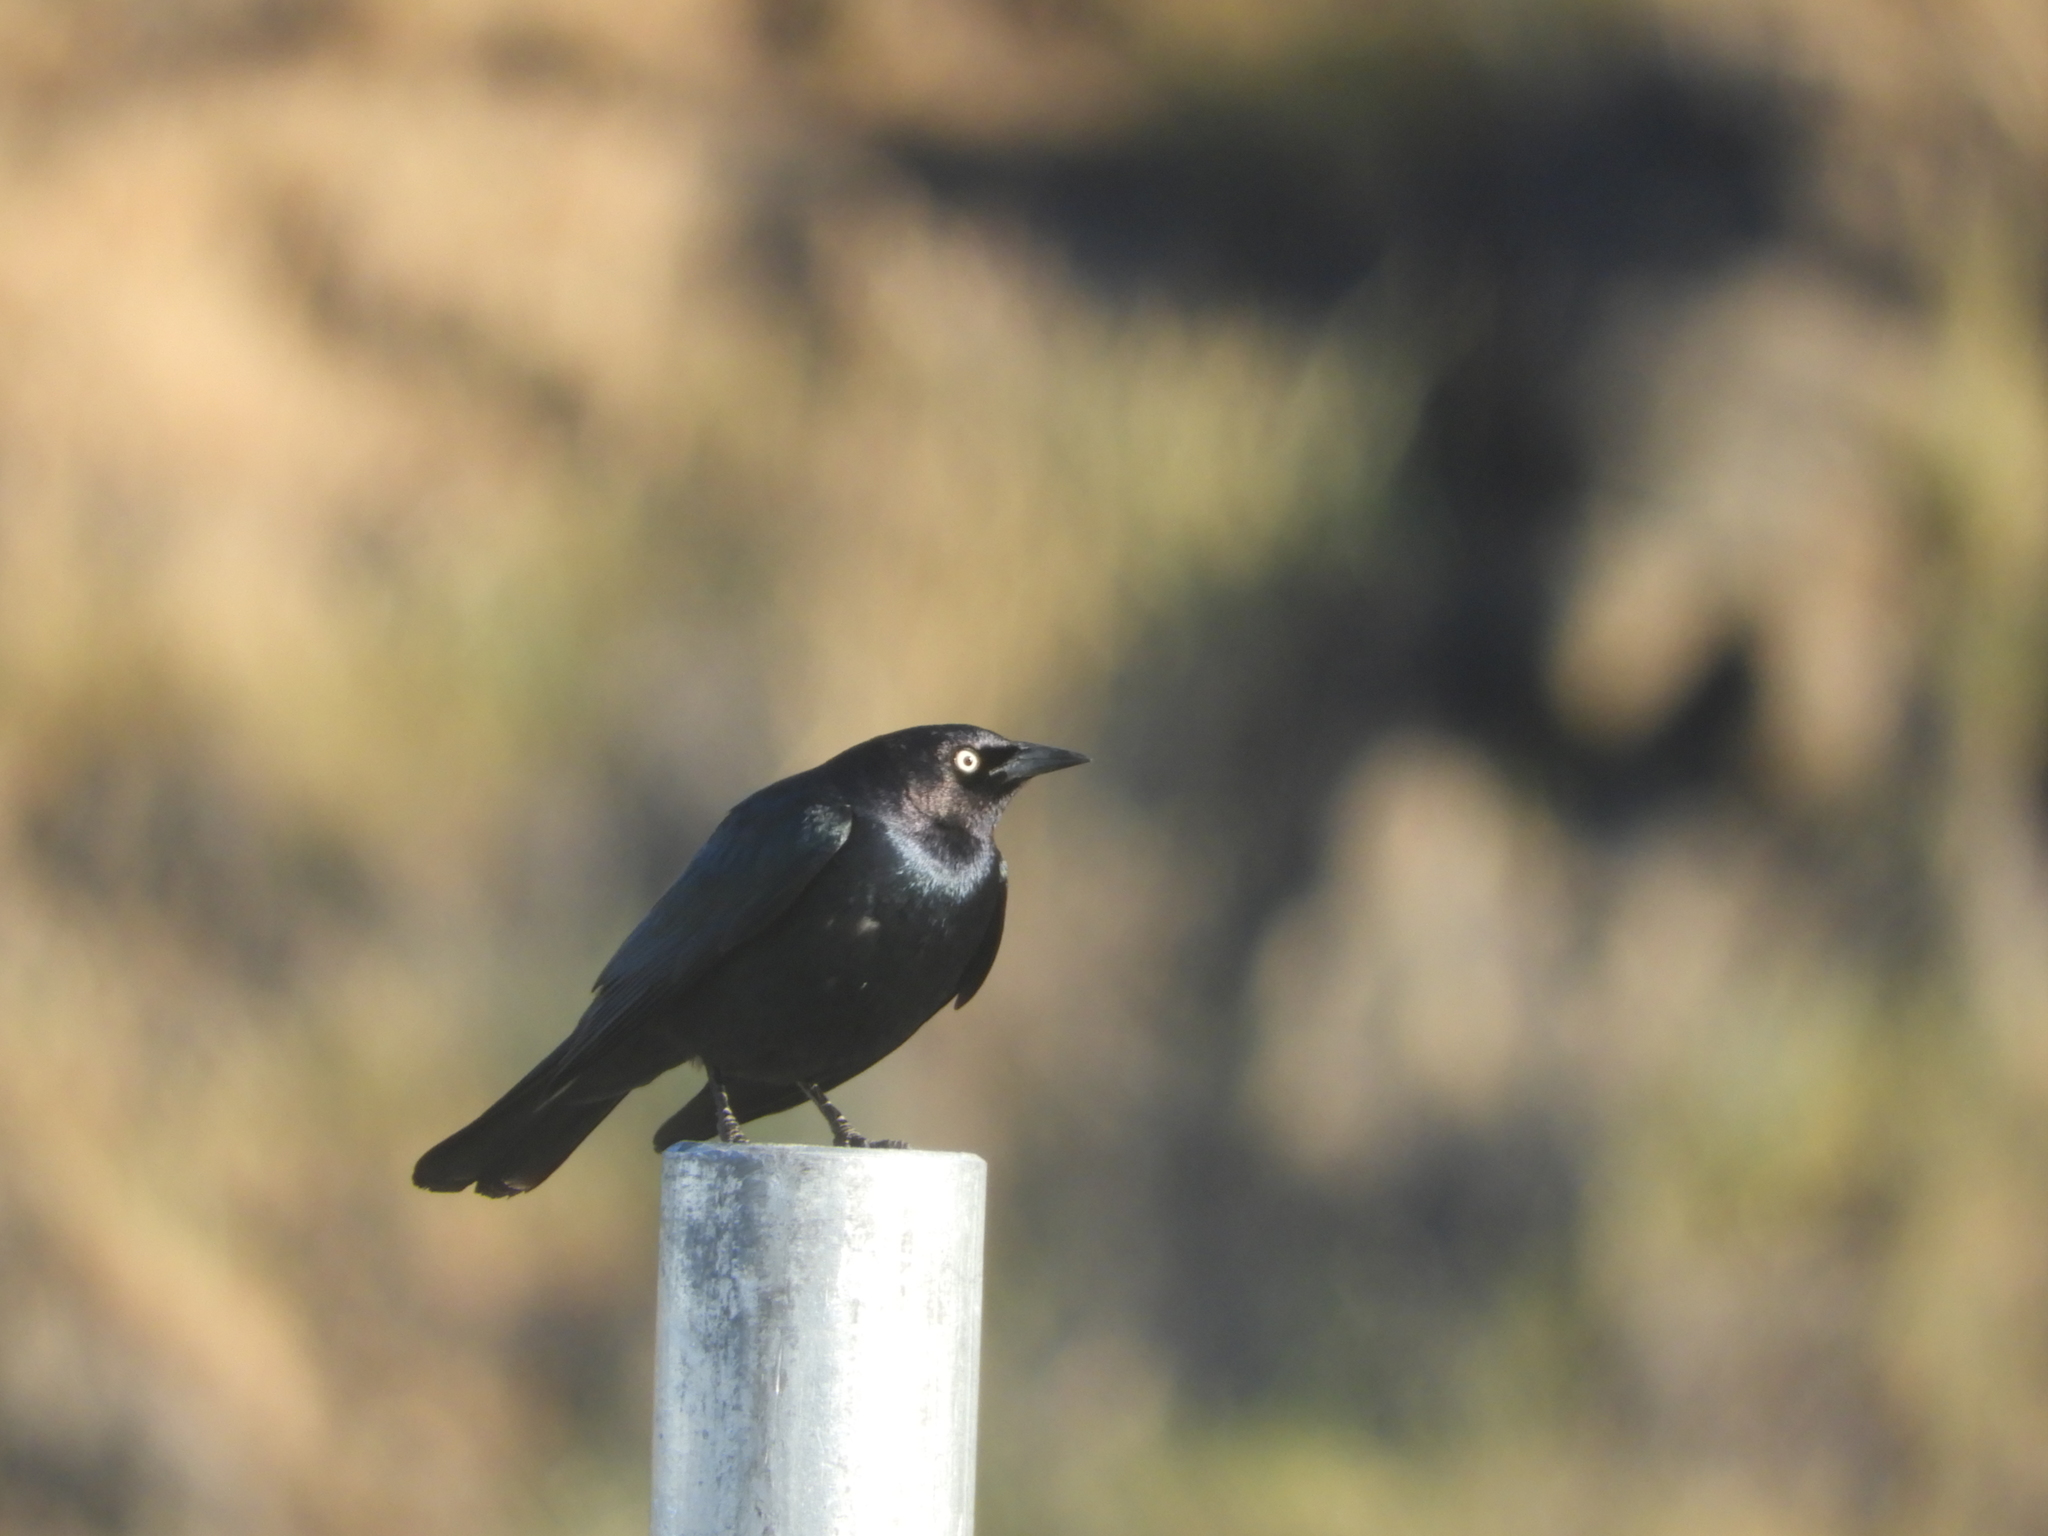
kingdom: Animalia
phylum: Chordata
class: Aves
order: Passeriformes
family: Icteridae
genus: Euphagus
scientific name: Euphagus cyanocephalus
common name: Brewer's blackbird
